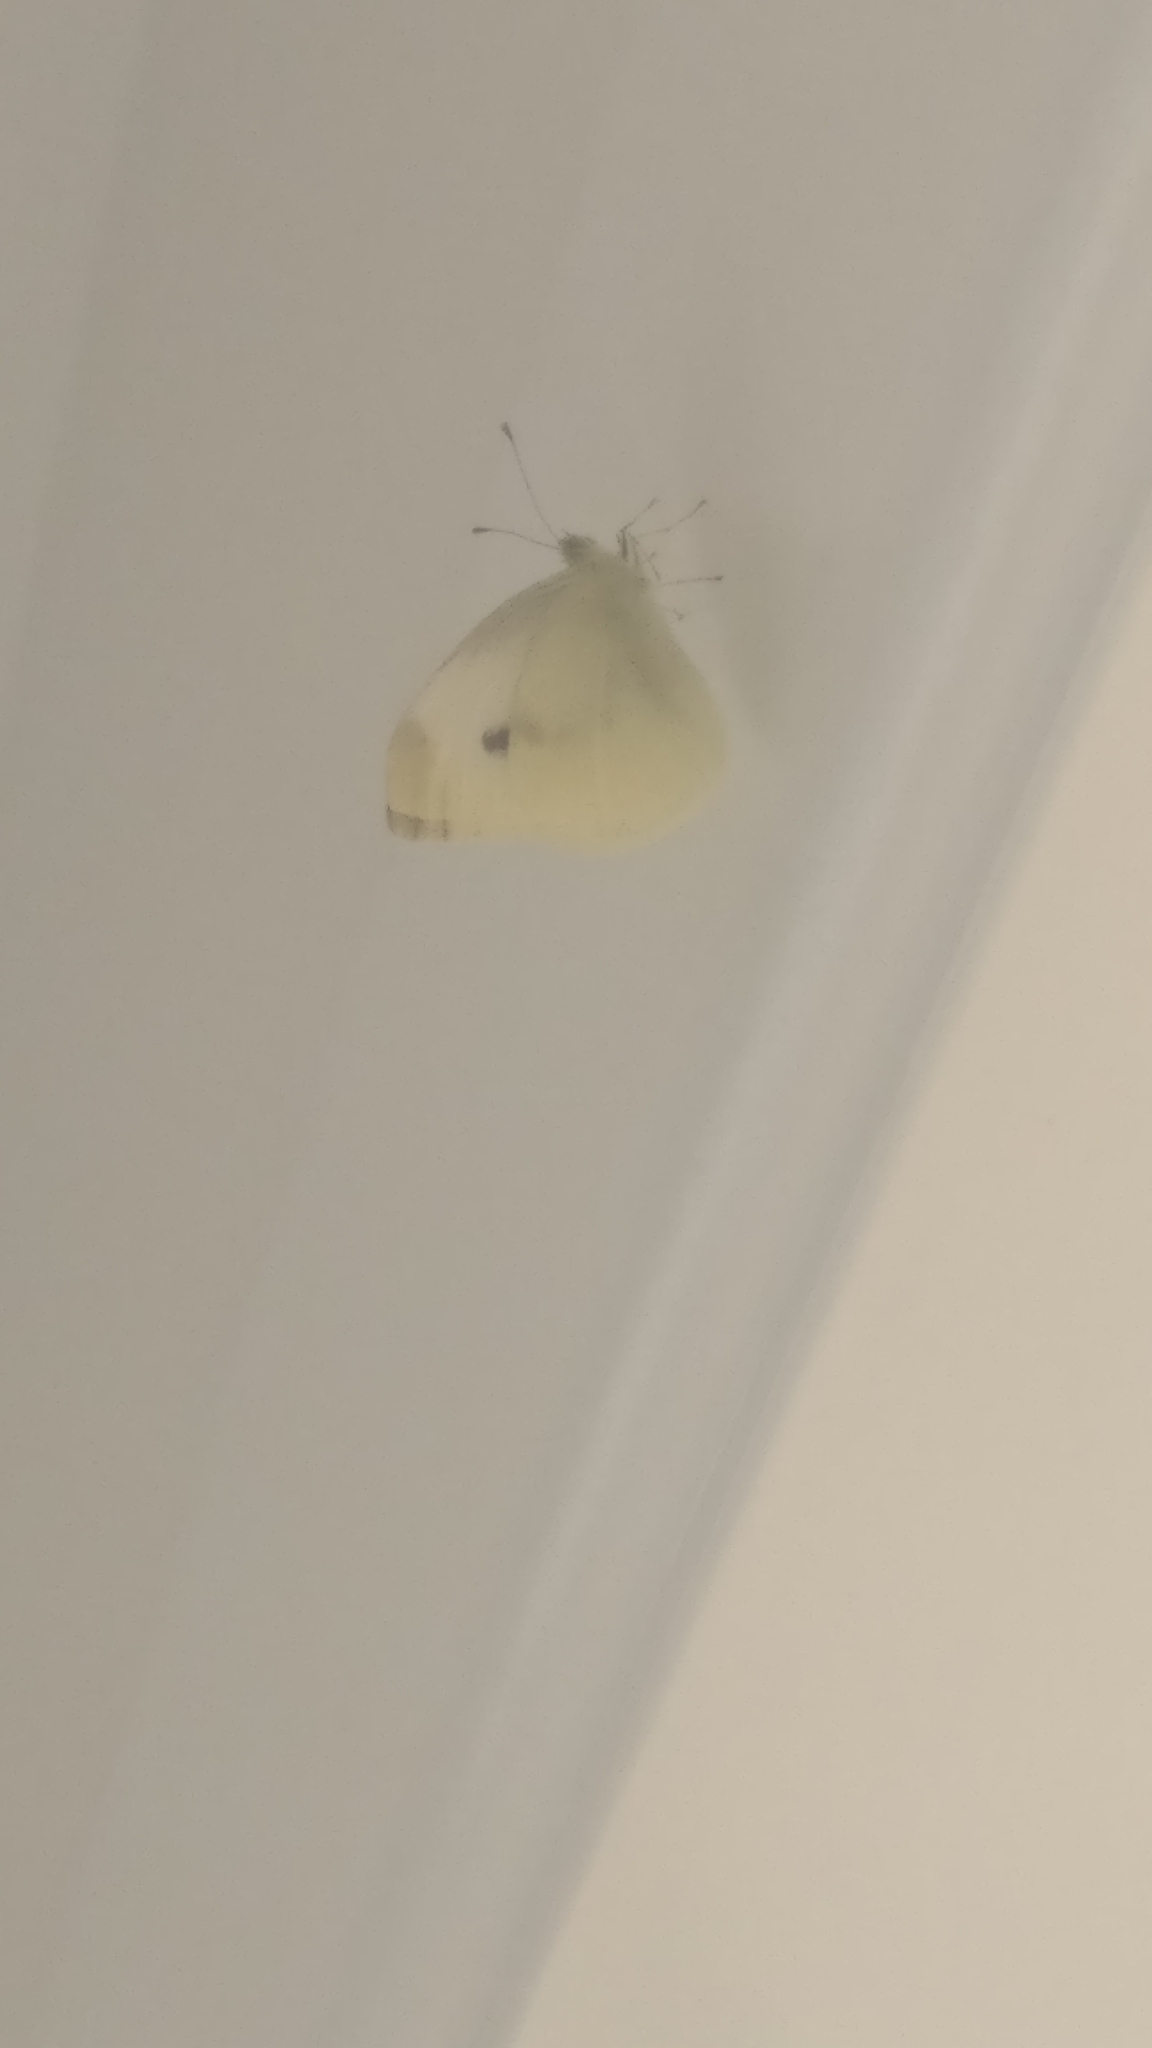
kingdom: Animalia
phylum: Arthropoda
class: Insecta
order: Lepidoptera
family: Pieridae
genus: Pieris
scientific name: Pieris rapae
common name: Small white
